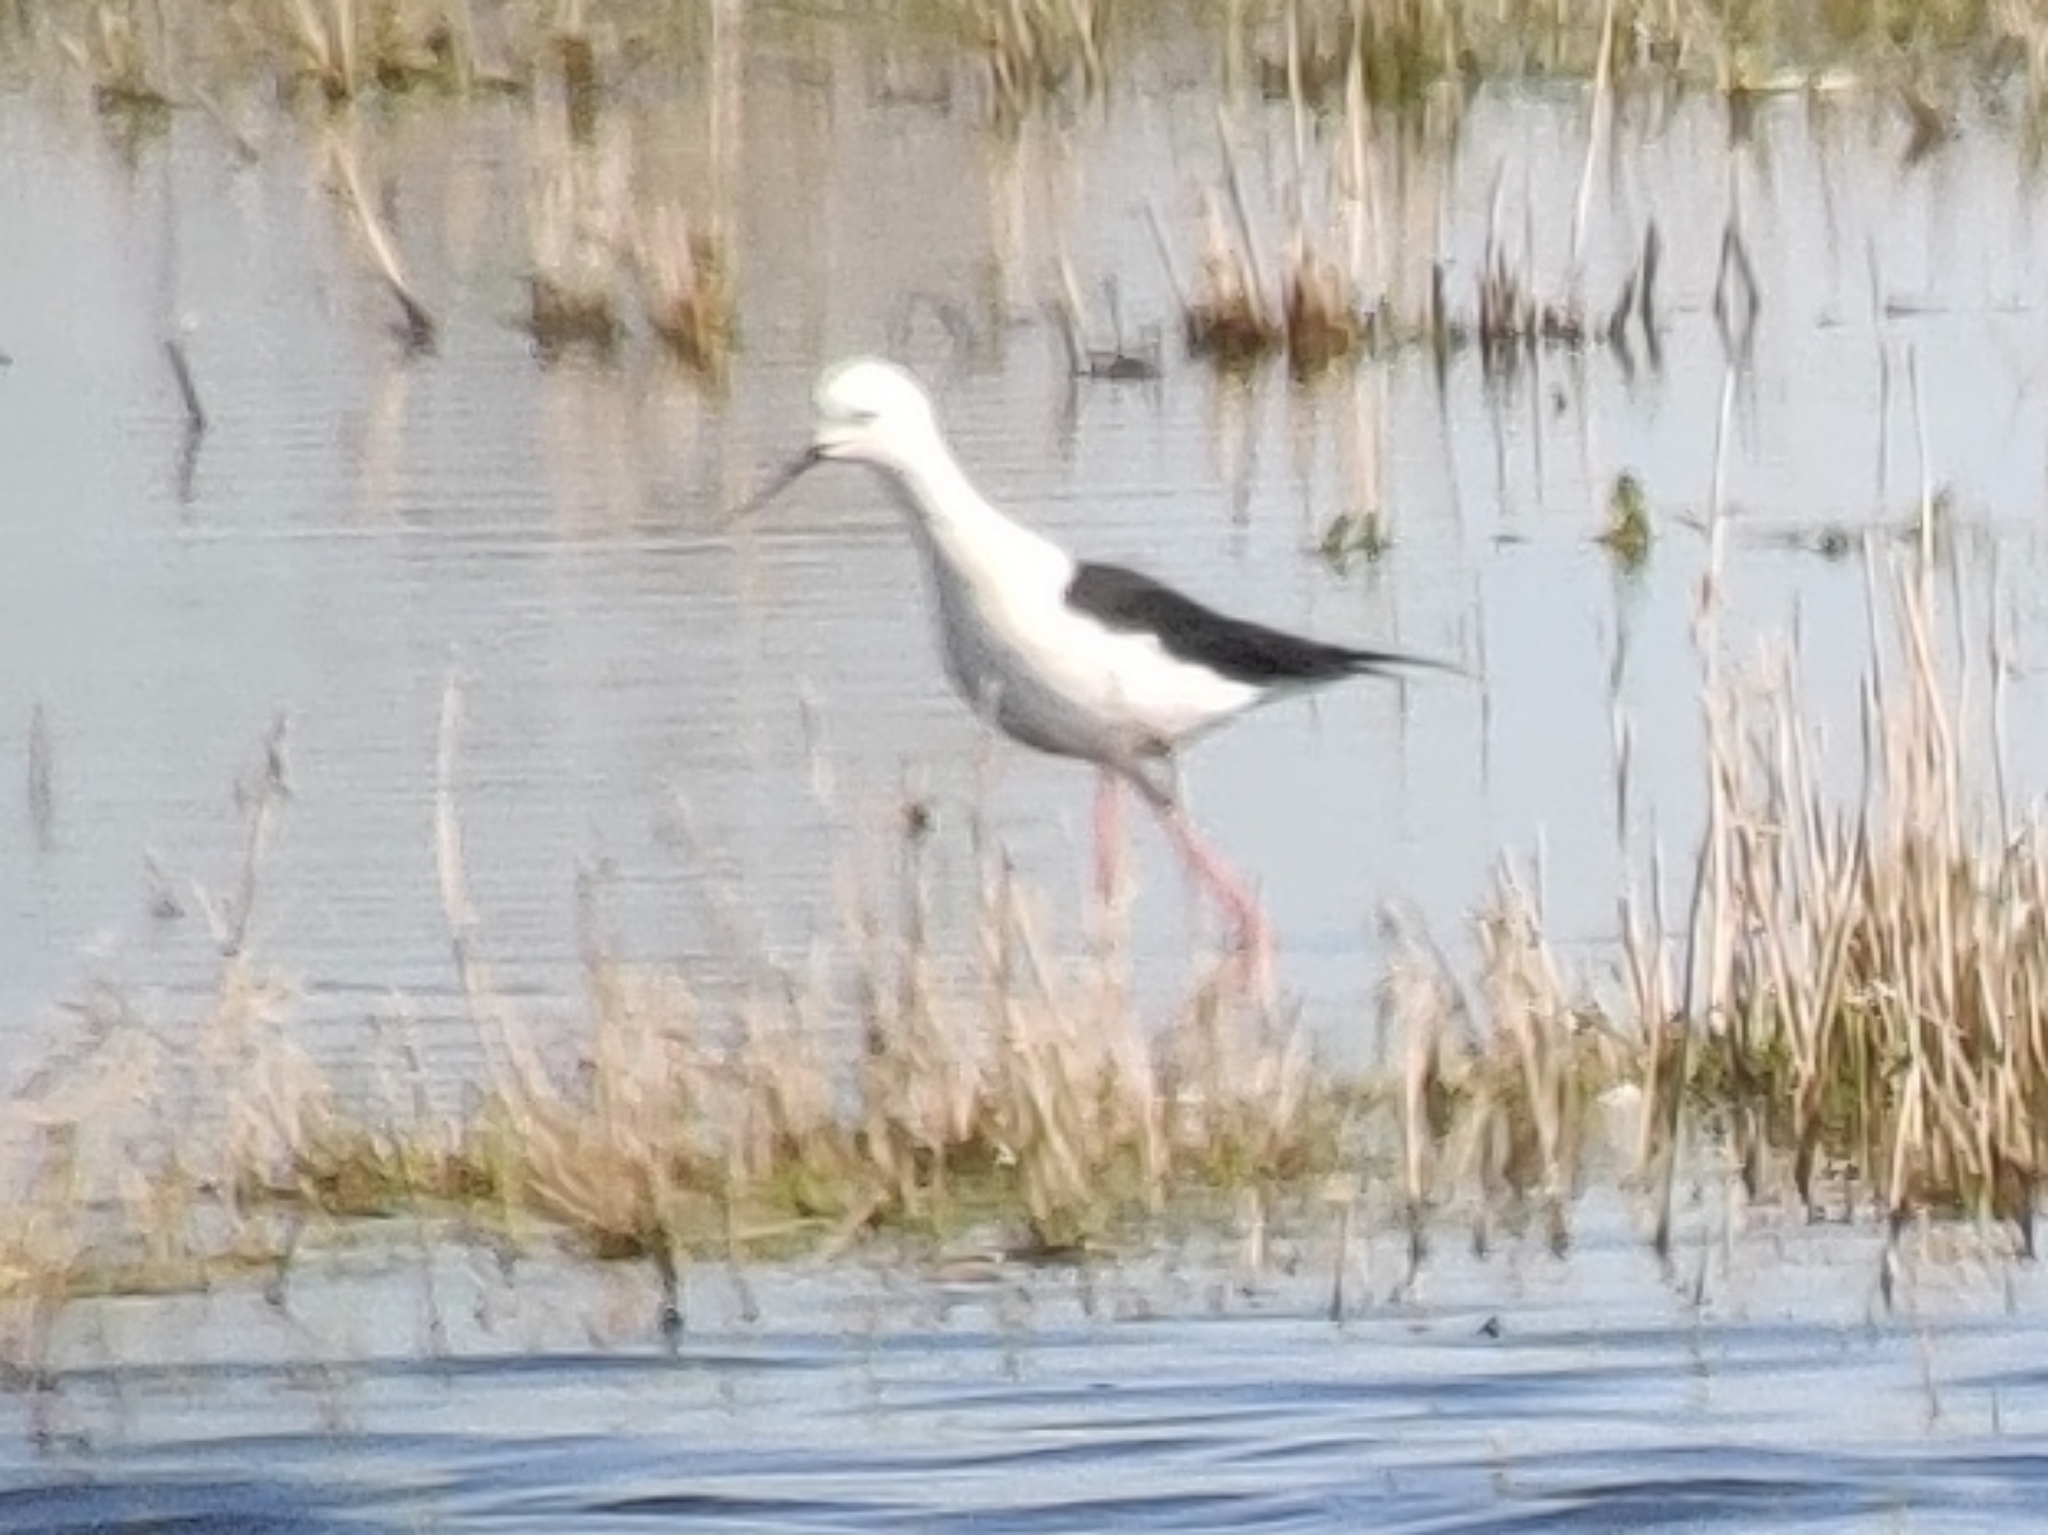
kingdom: Animalia
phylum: Chordata
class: Aves
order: Charadriiformes
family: Recurvirostridae
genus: Himantopus
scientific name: Himantopus himantopus
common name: Black-winged stilt
